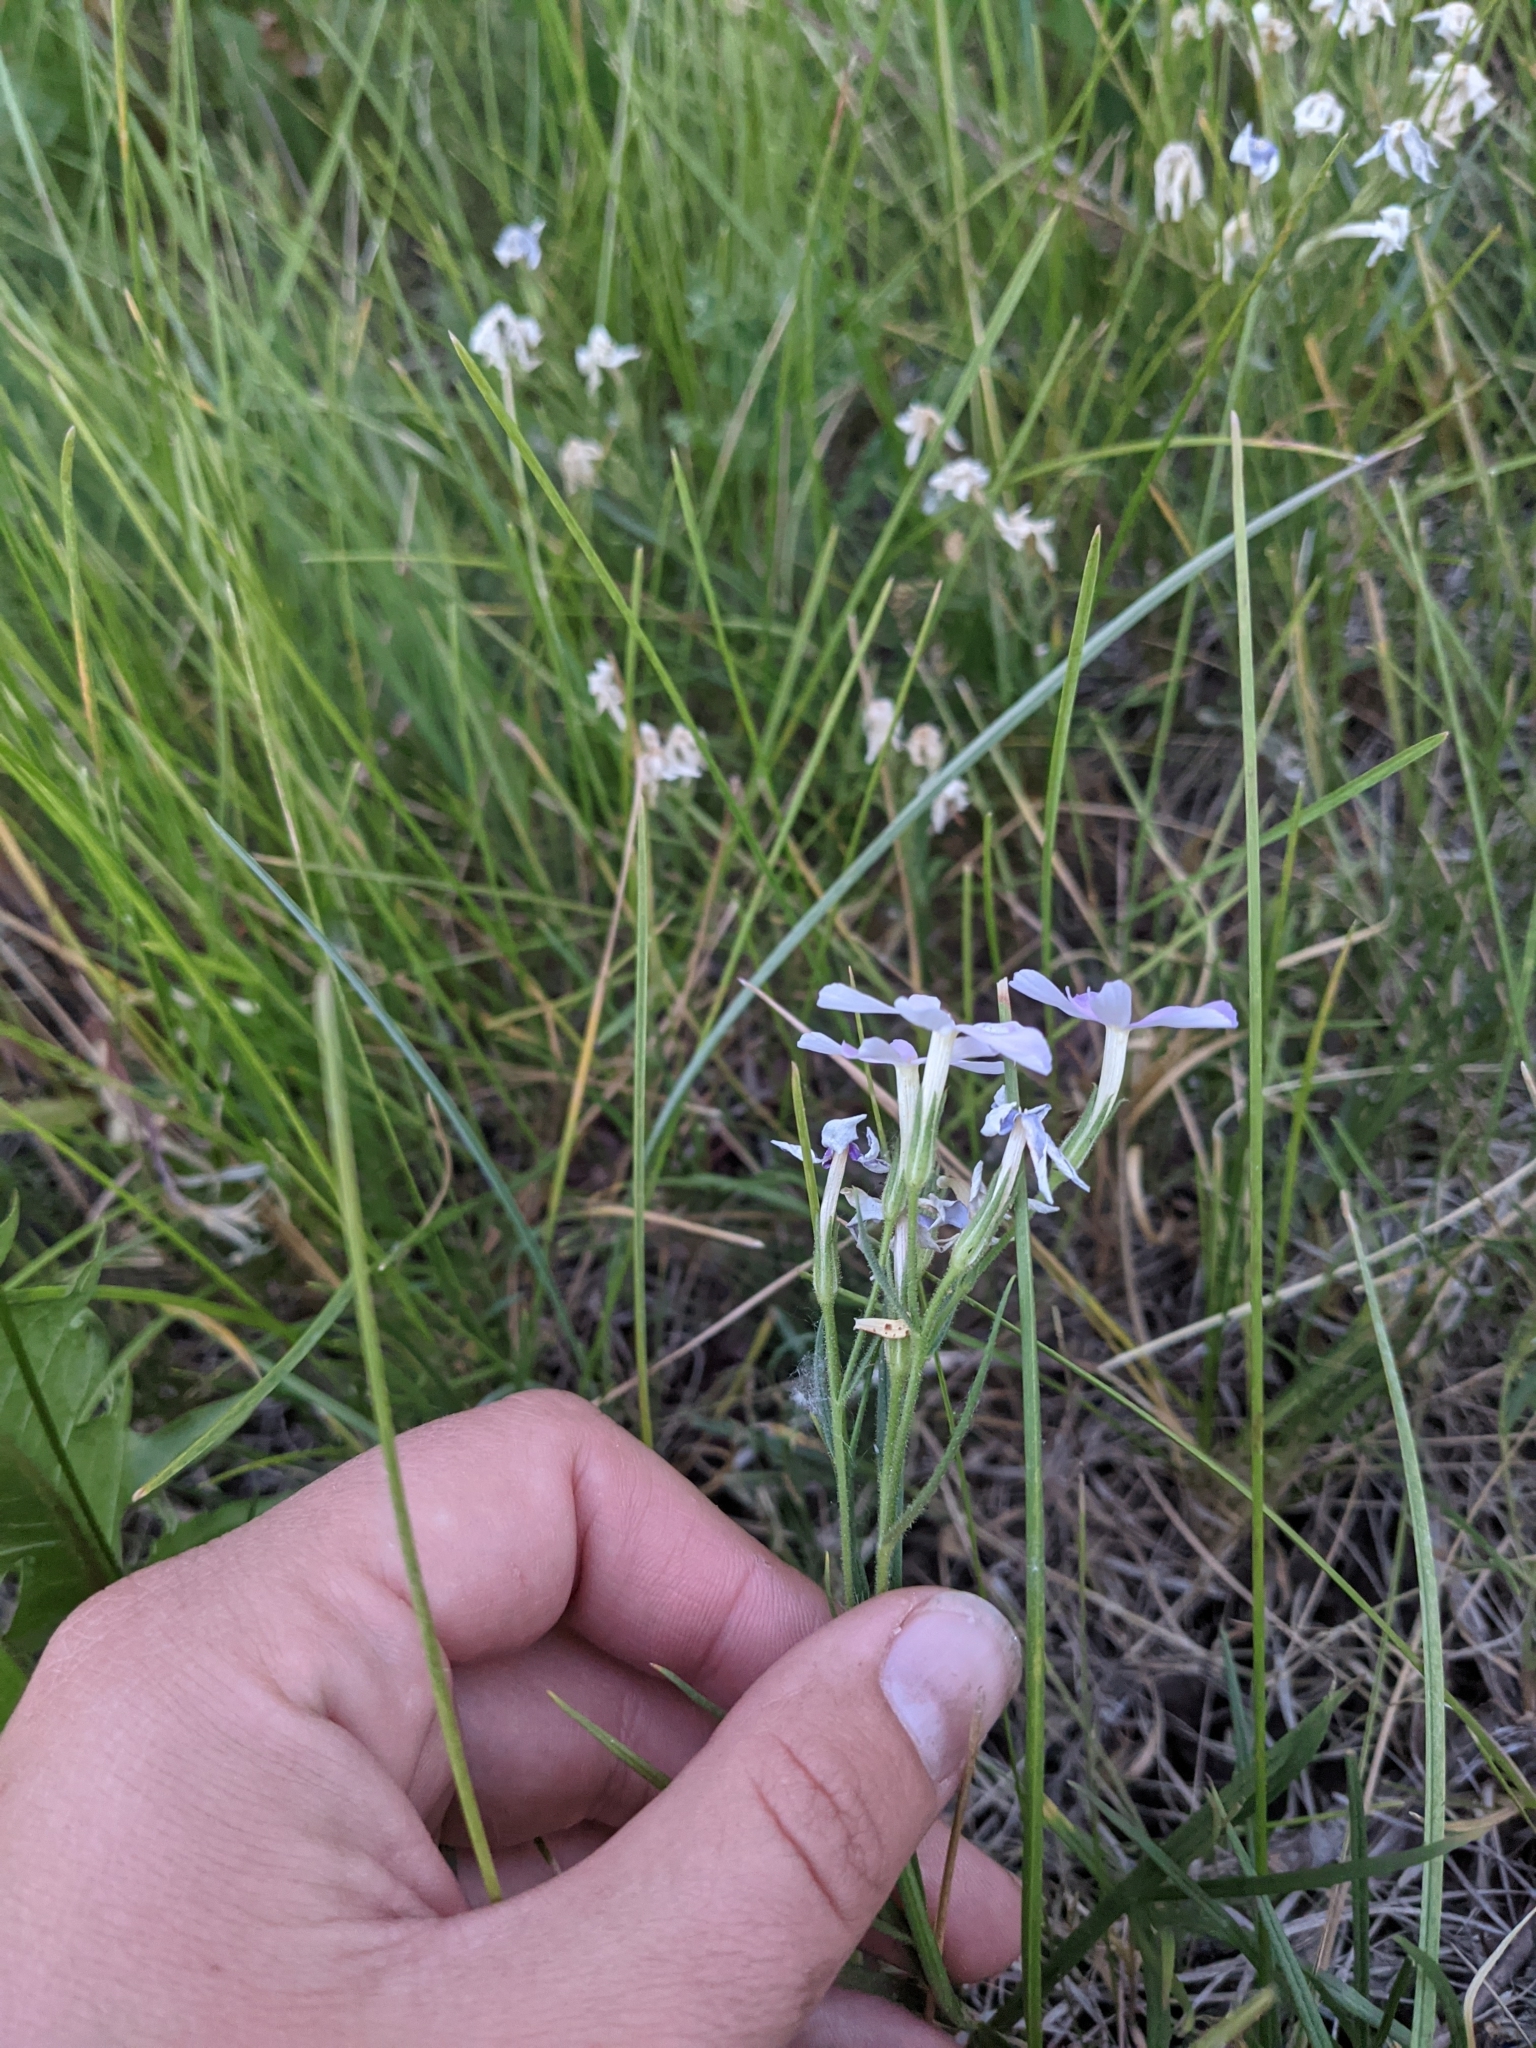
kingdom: Plantae
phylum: Tracheophyta
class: Magnoliopsida
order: Ericales
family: Polemoniaceae
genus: Phlox
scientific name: Phlox longifolia
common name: Longleaf phlox
